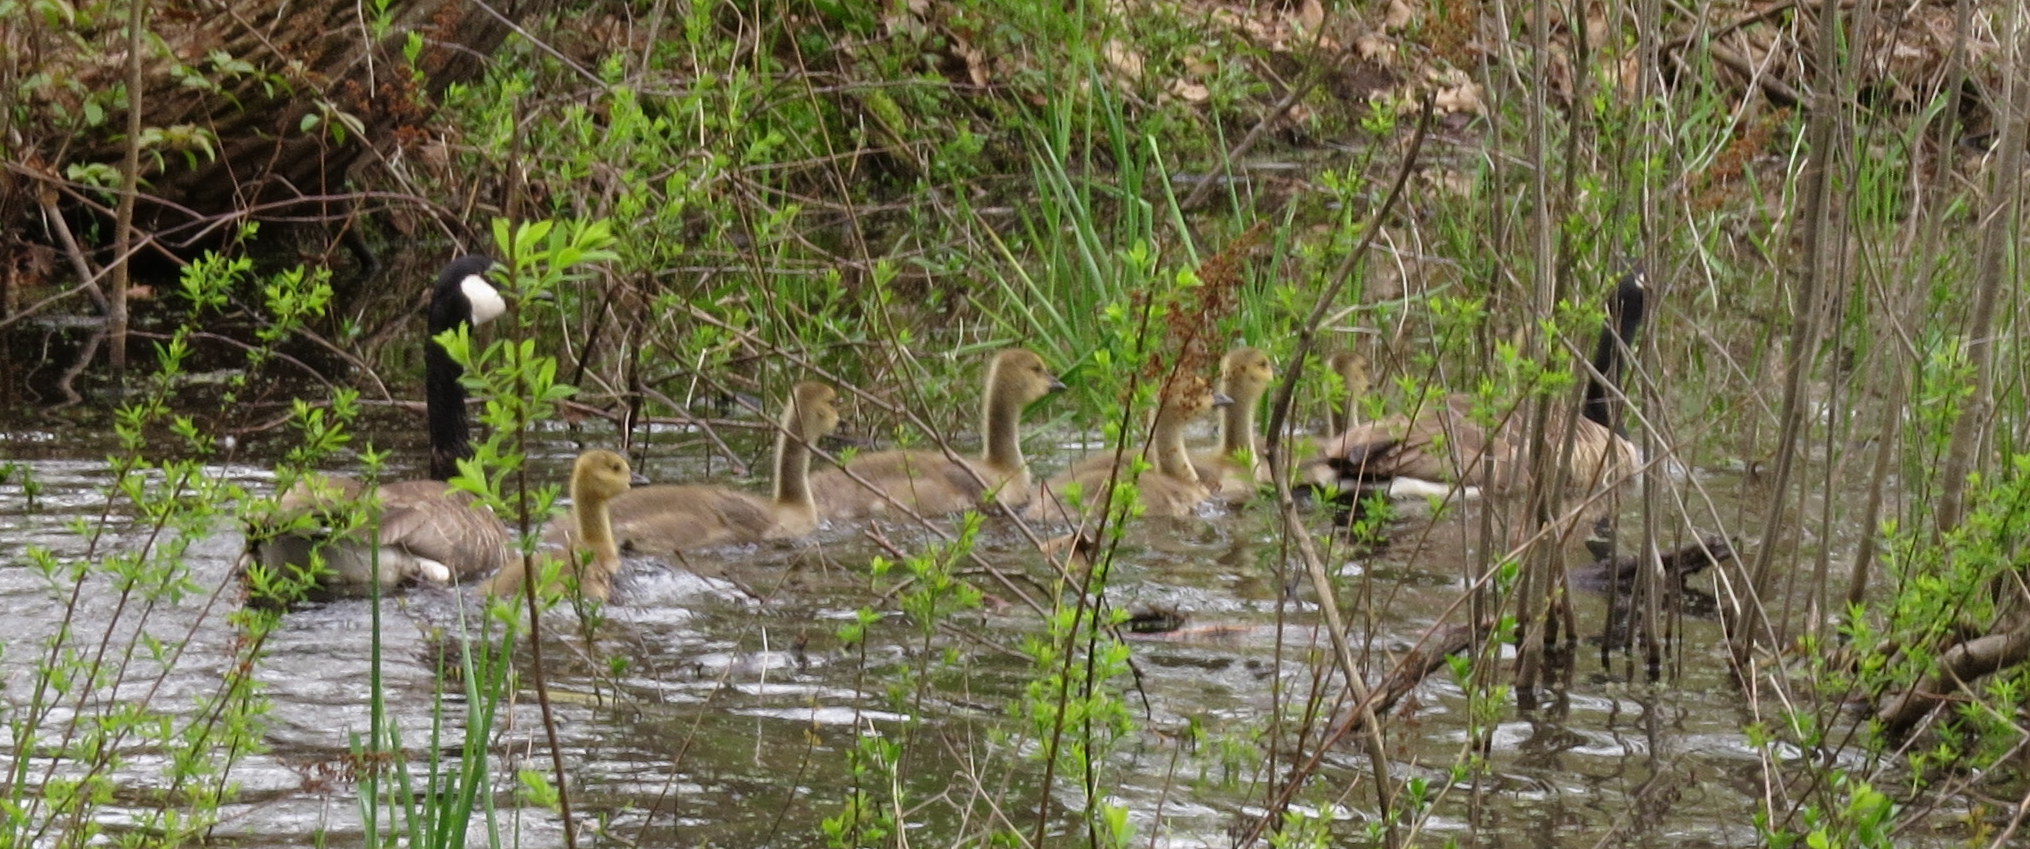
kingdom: Animalia
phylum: Chordata
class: Aves
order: Anseriformes
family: Anatidae
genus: Branta
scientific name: Branta canadensis
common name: Canada goose
